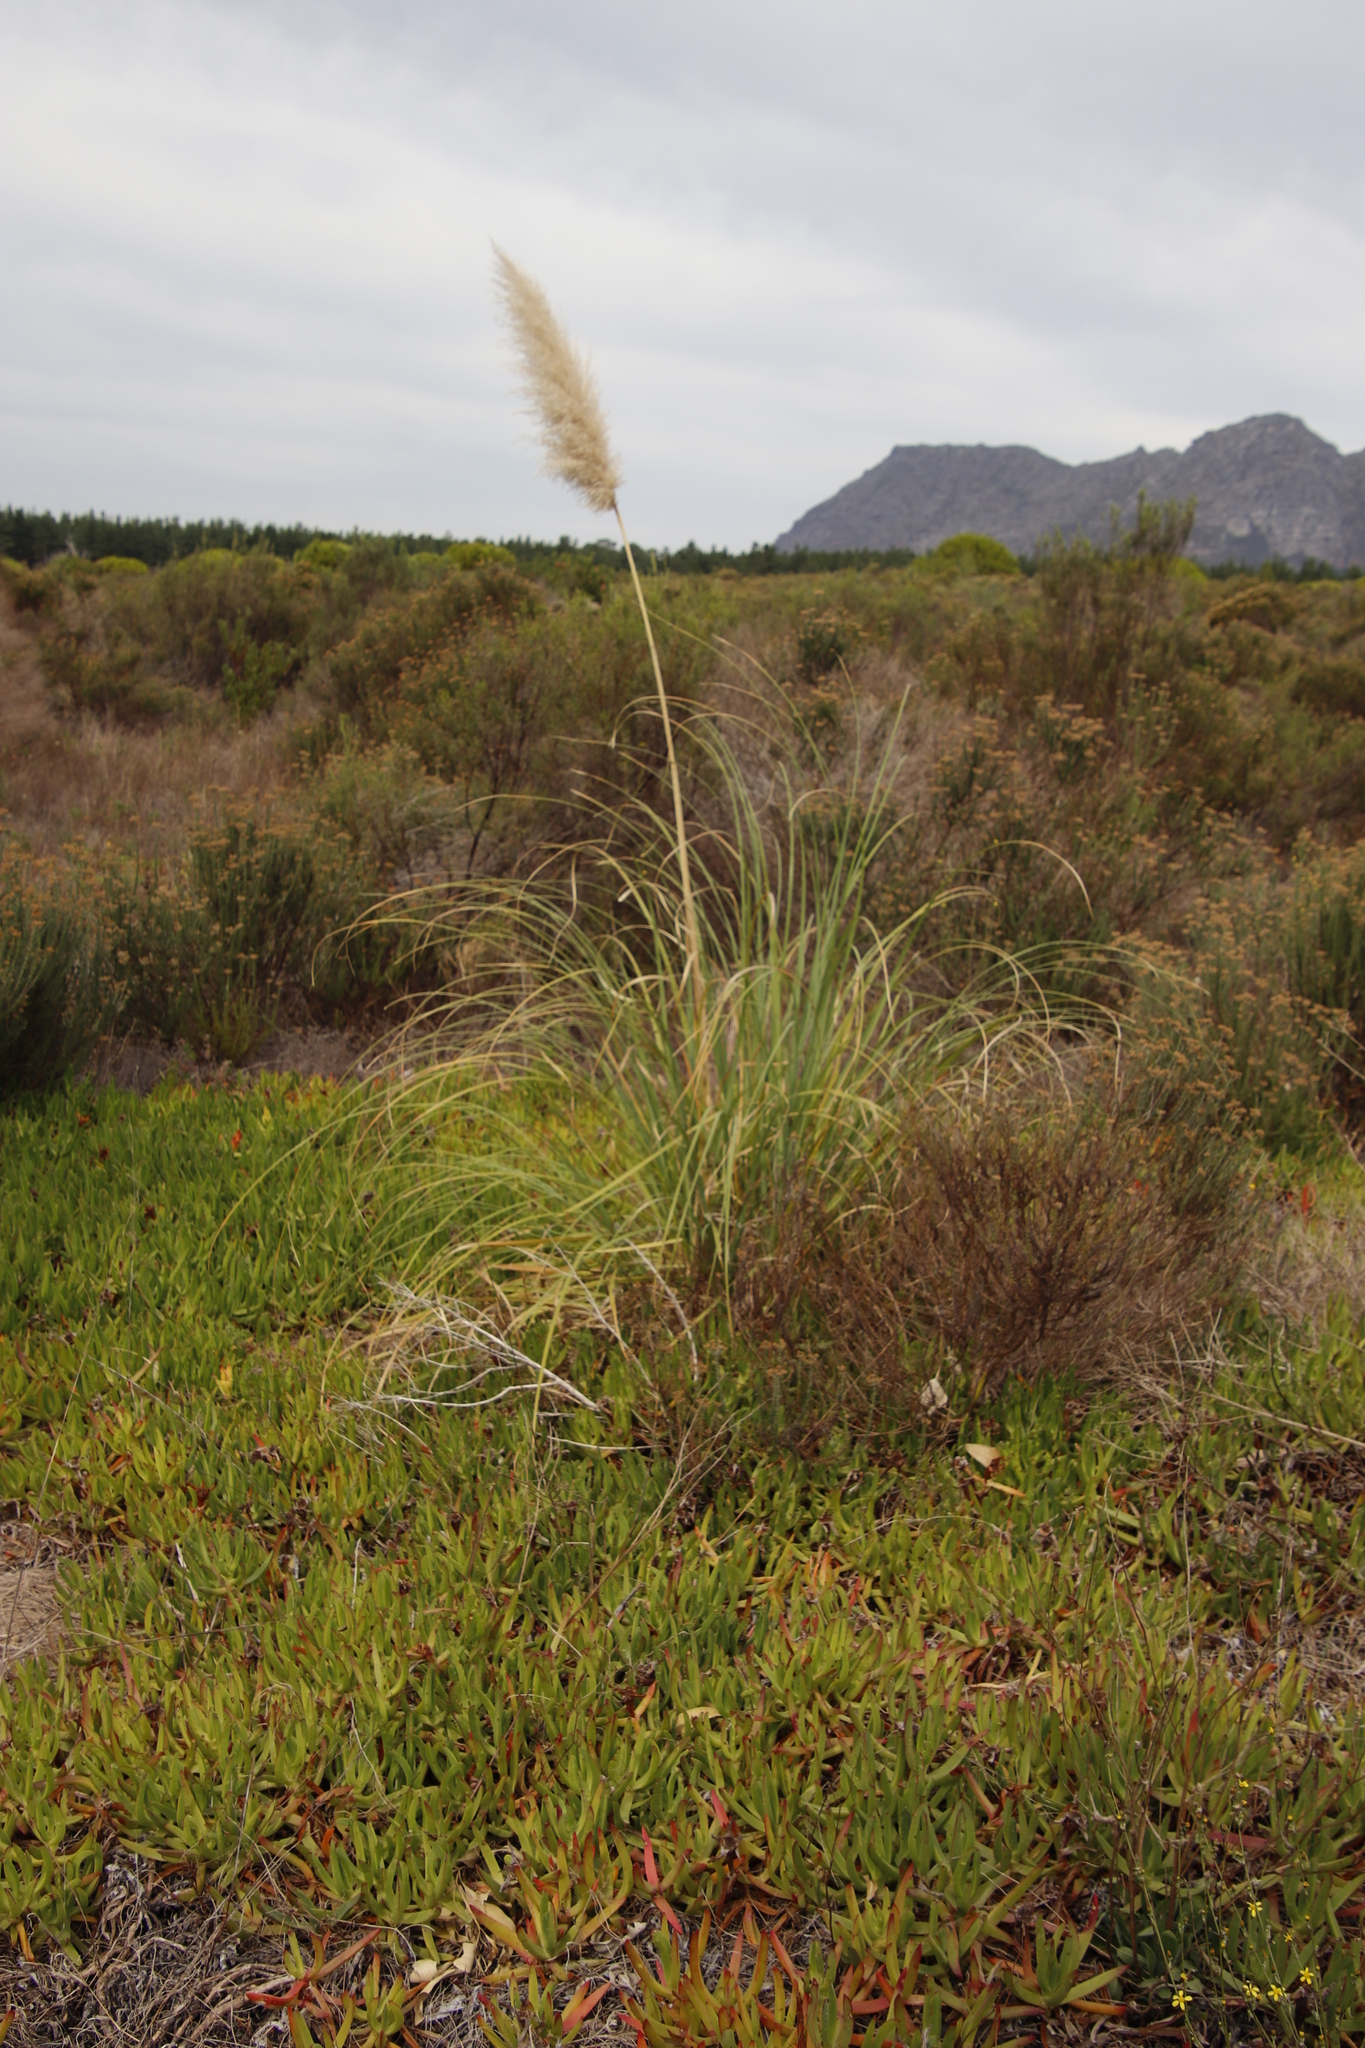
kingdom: Plantae
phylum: Tracheophyta
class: Liliopsida
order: Poales
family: Poaceae
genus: Cortaderia
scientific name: Cortaderia selloana
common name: Uruguayan pampas grass
